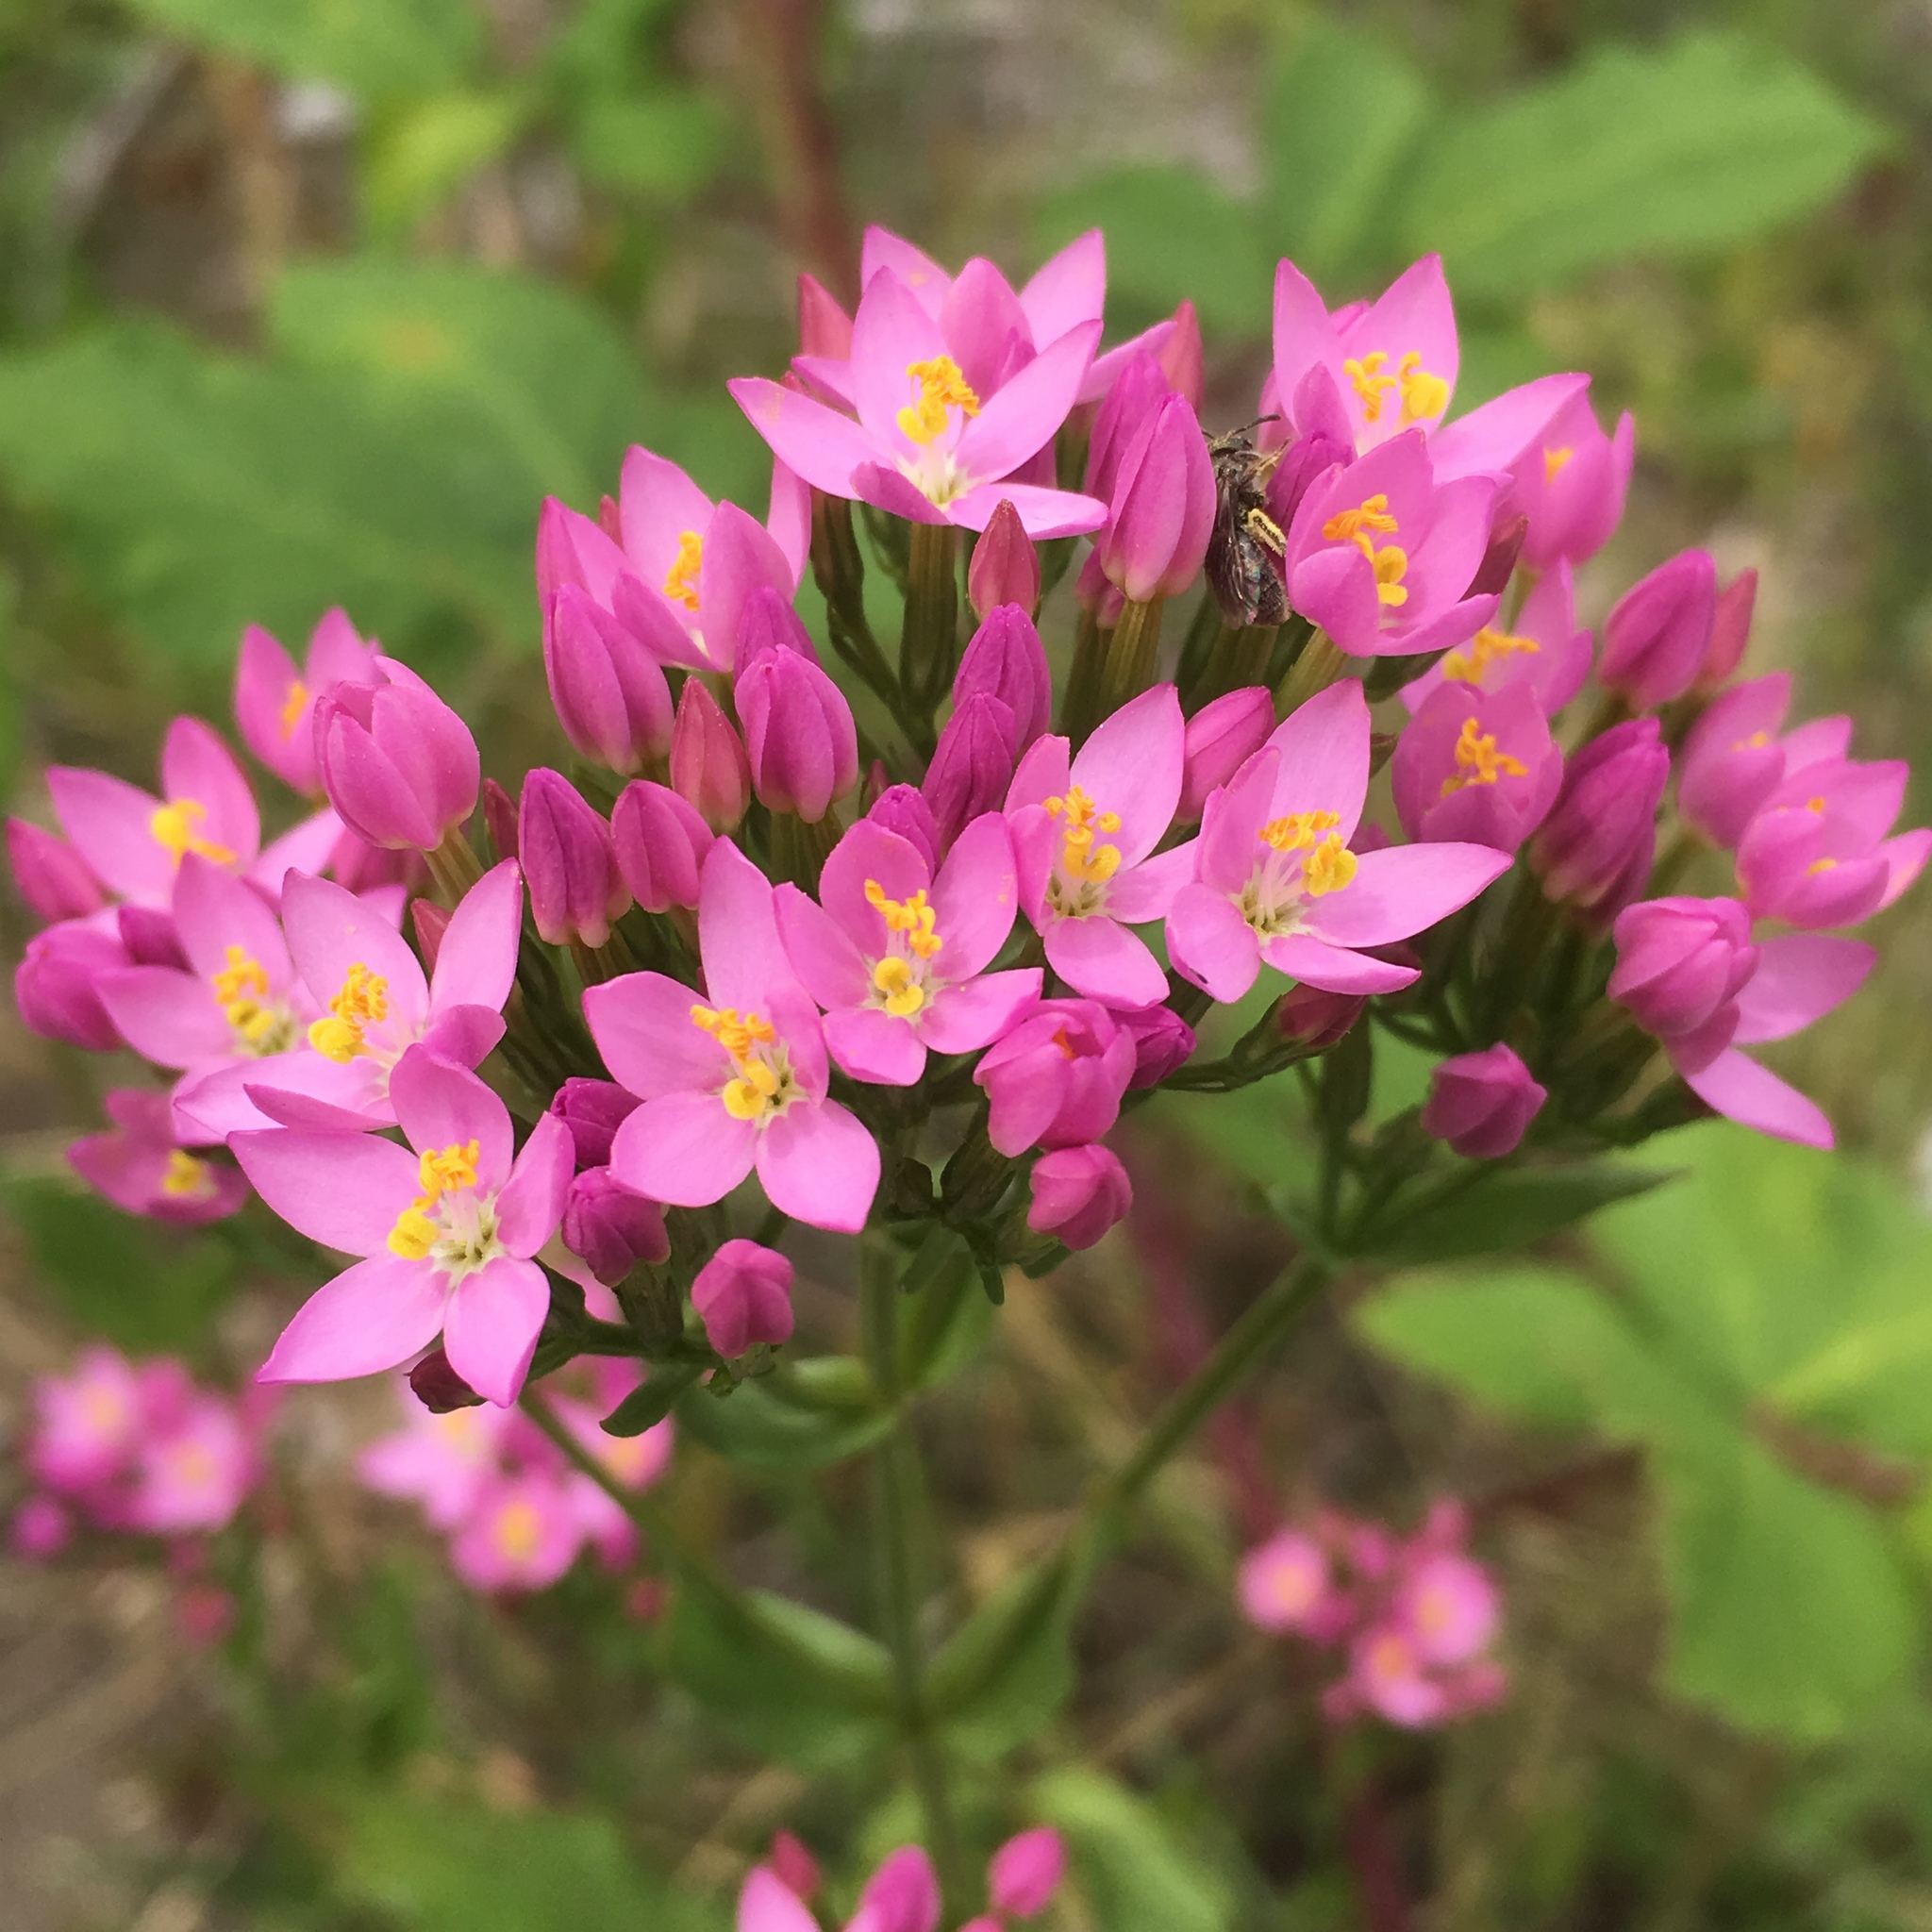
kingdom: Plantae
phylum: Tracheophyta
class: Magnoliopsida
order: Gentianales
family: Gentianaceae
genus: Centaurium
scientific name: Centaurium erythraea
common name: Common centaury
